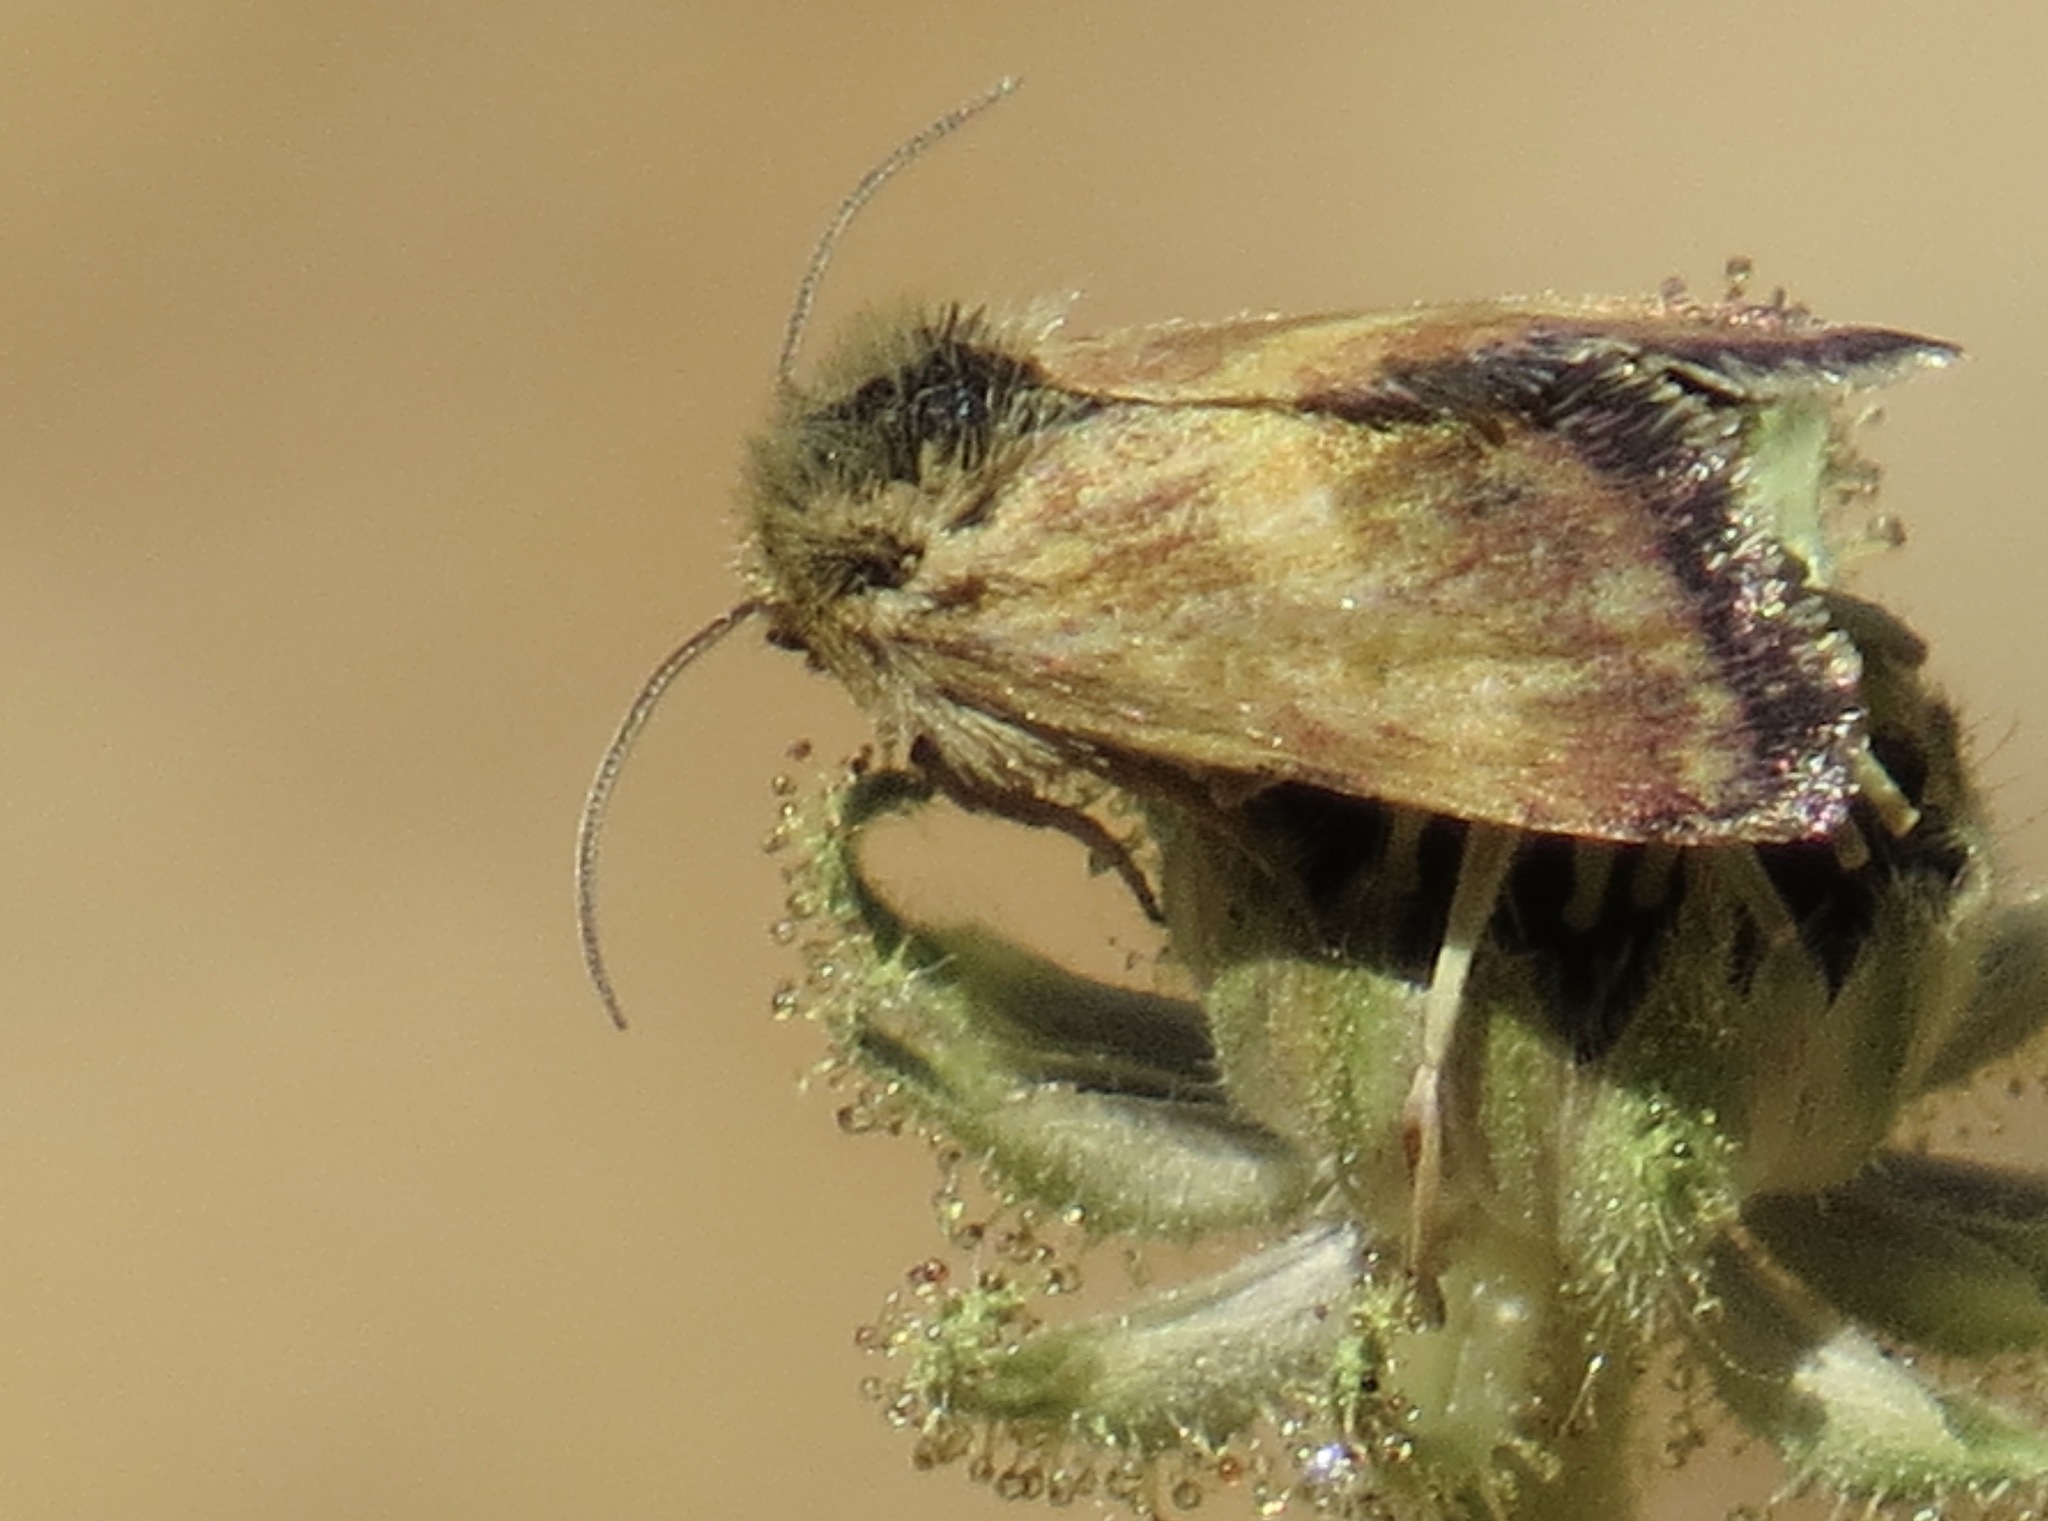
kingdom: Animalia
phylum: Arthropoda
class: Insecta
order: Lepidoptera
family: Noctuidae
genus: Heliothodes
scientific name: Heliothodes diminutiva
